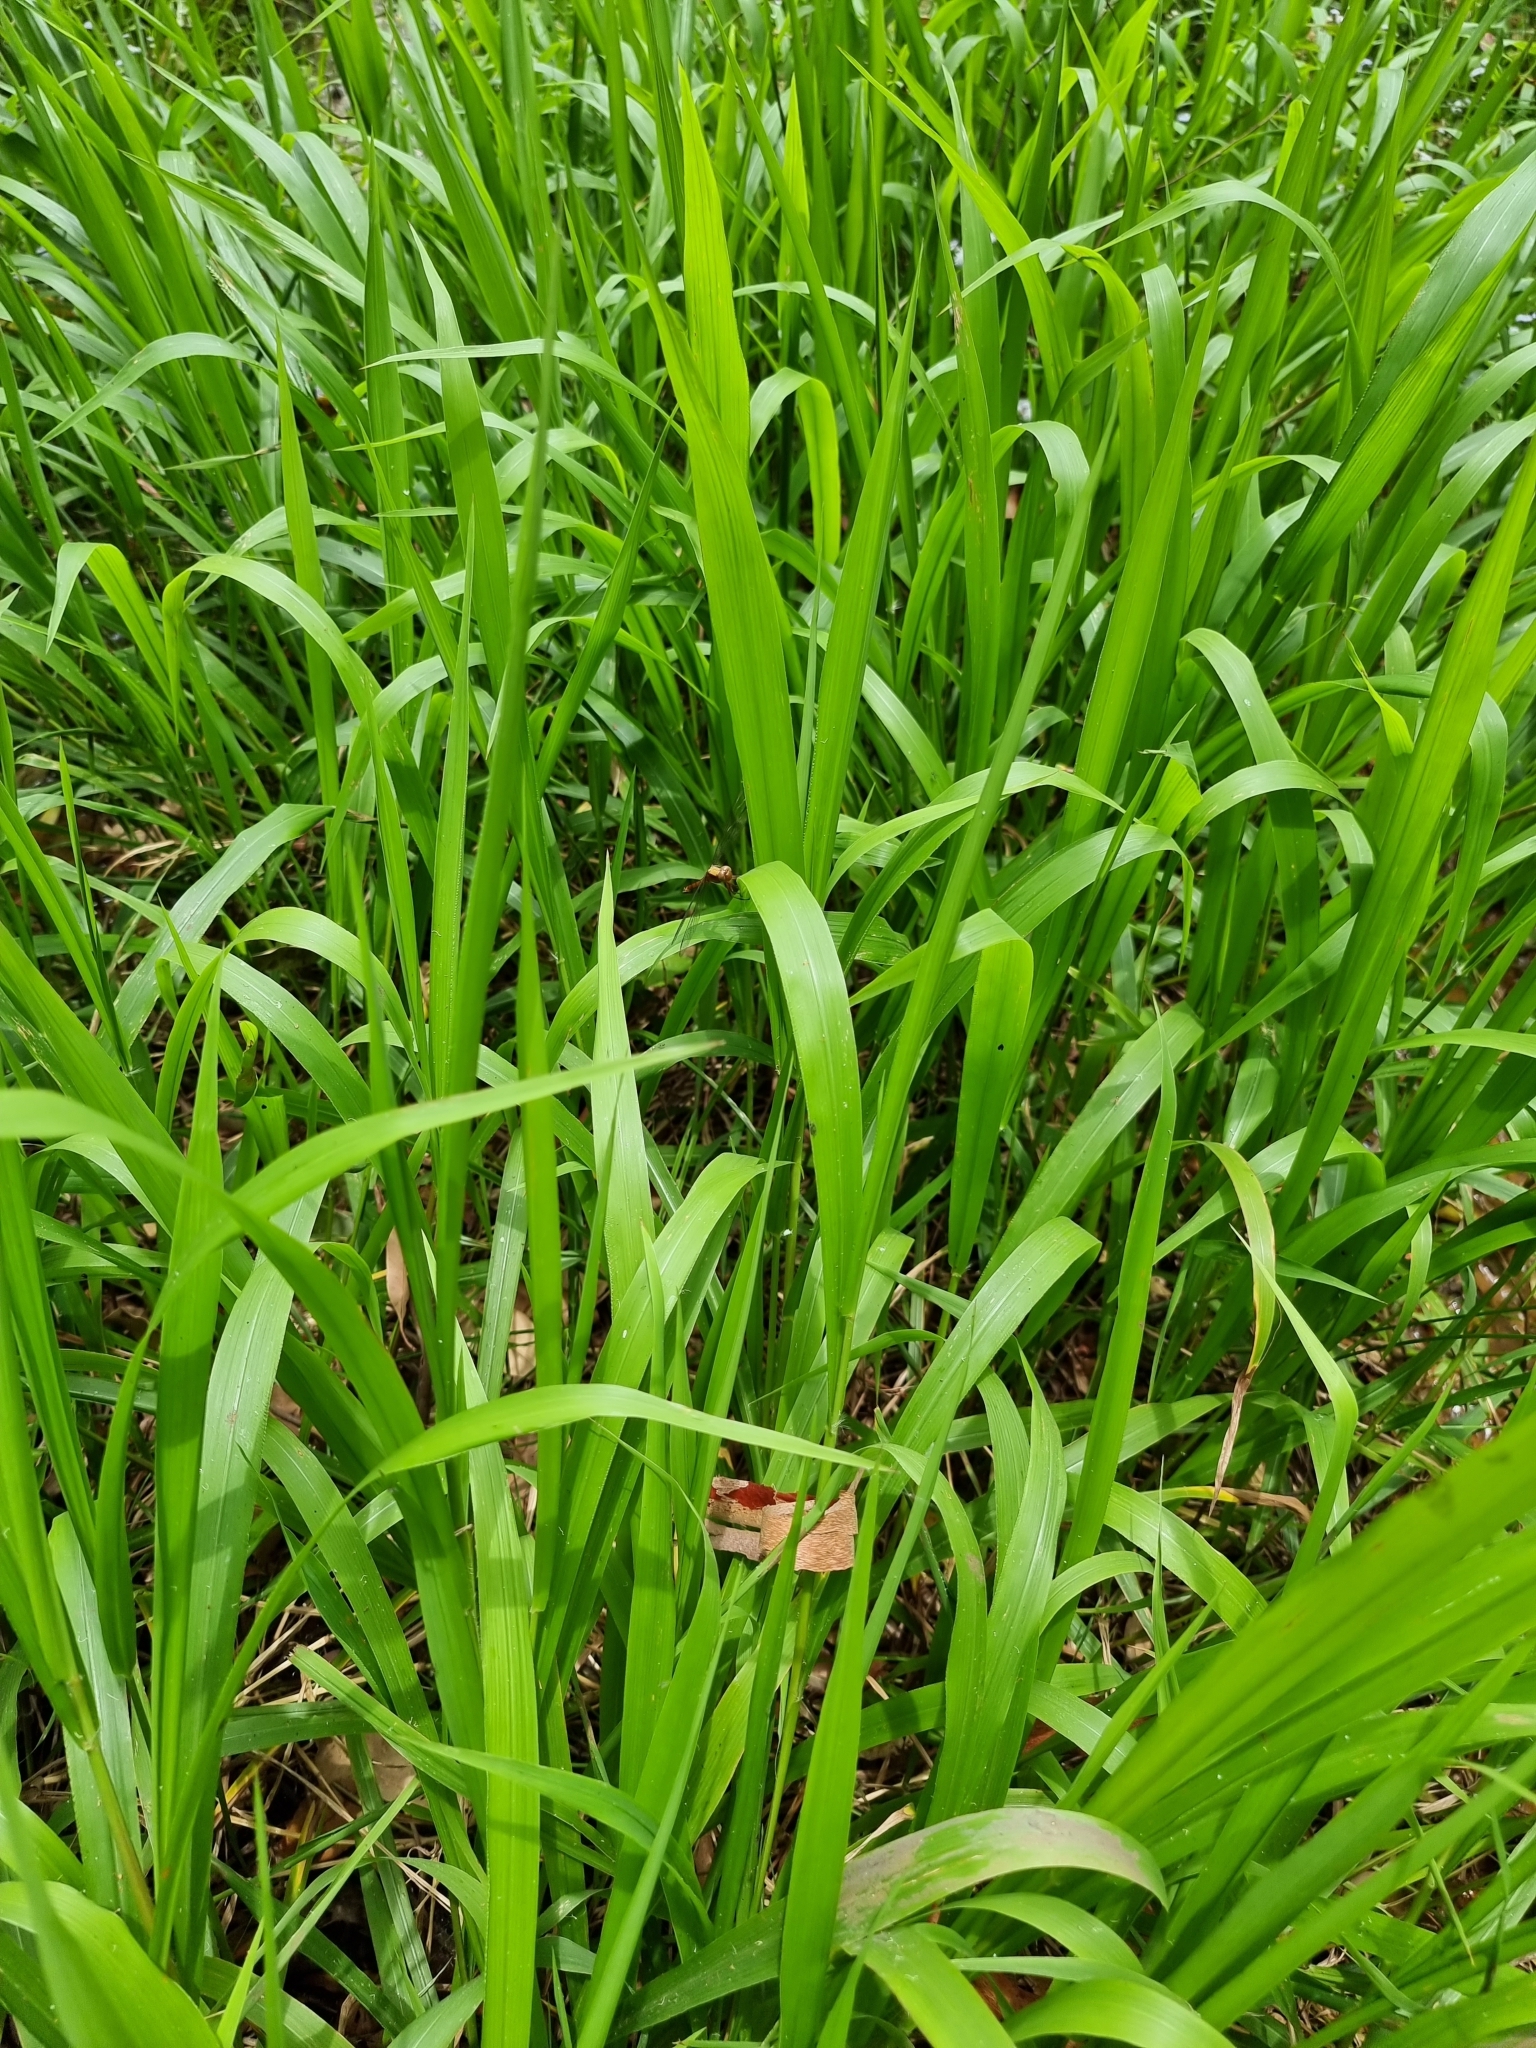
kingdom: Animalia
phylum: Arthropoda
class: Insecta
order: Odonata
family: Libellulidae
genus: Orthetrum
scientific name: Orthetrum villosovittatum
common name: Firery skimmer
